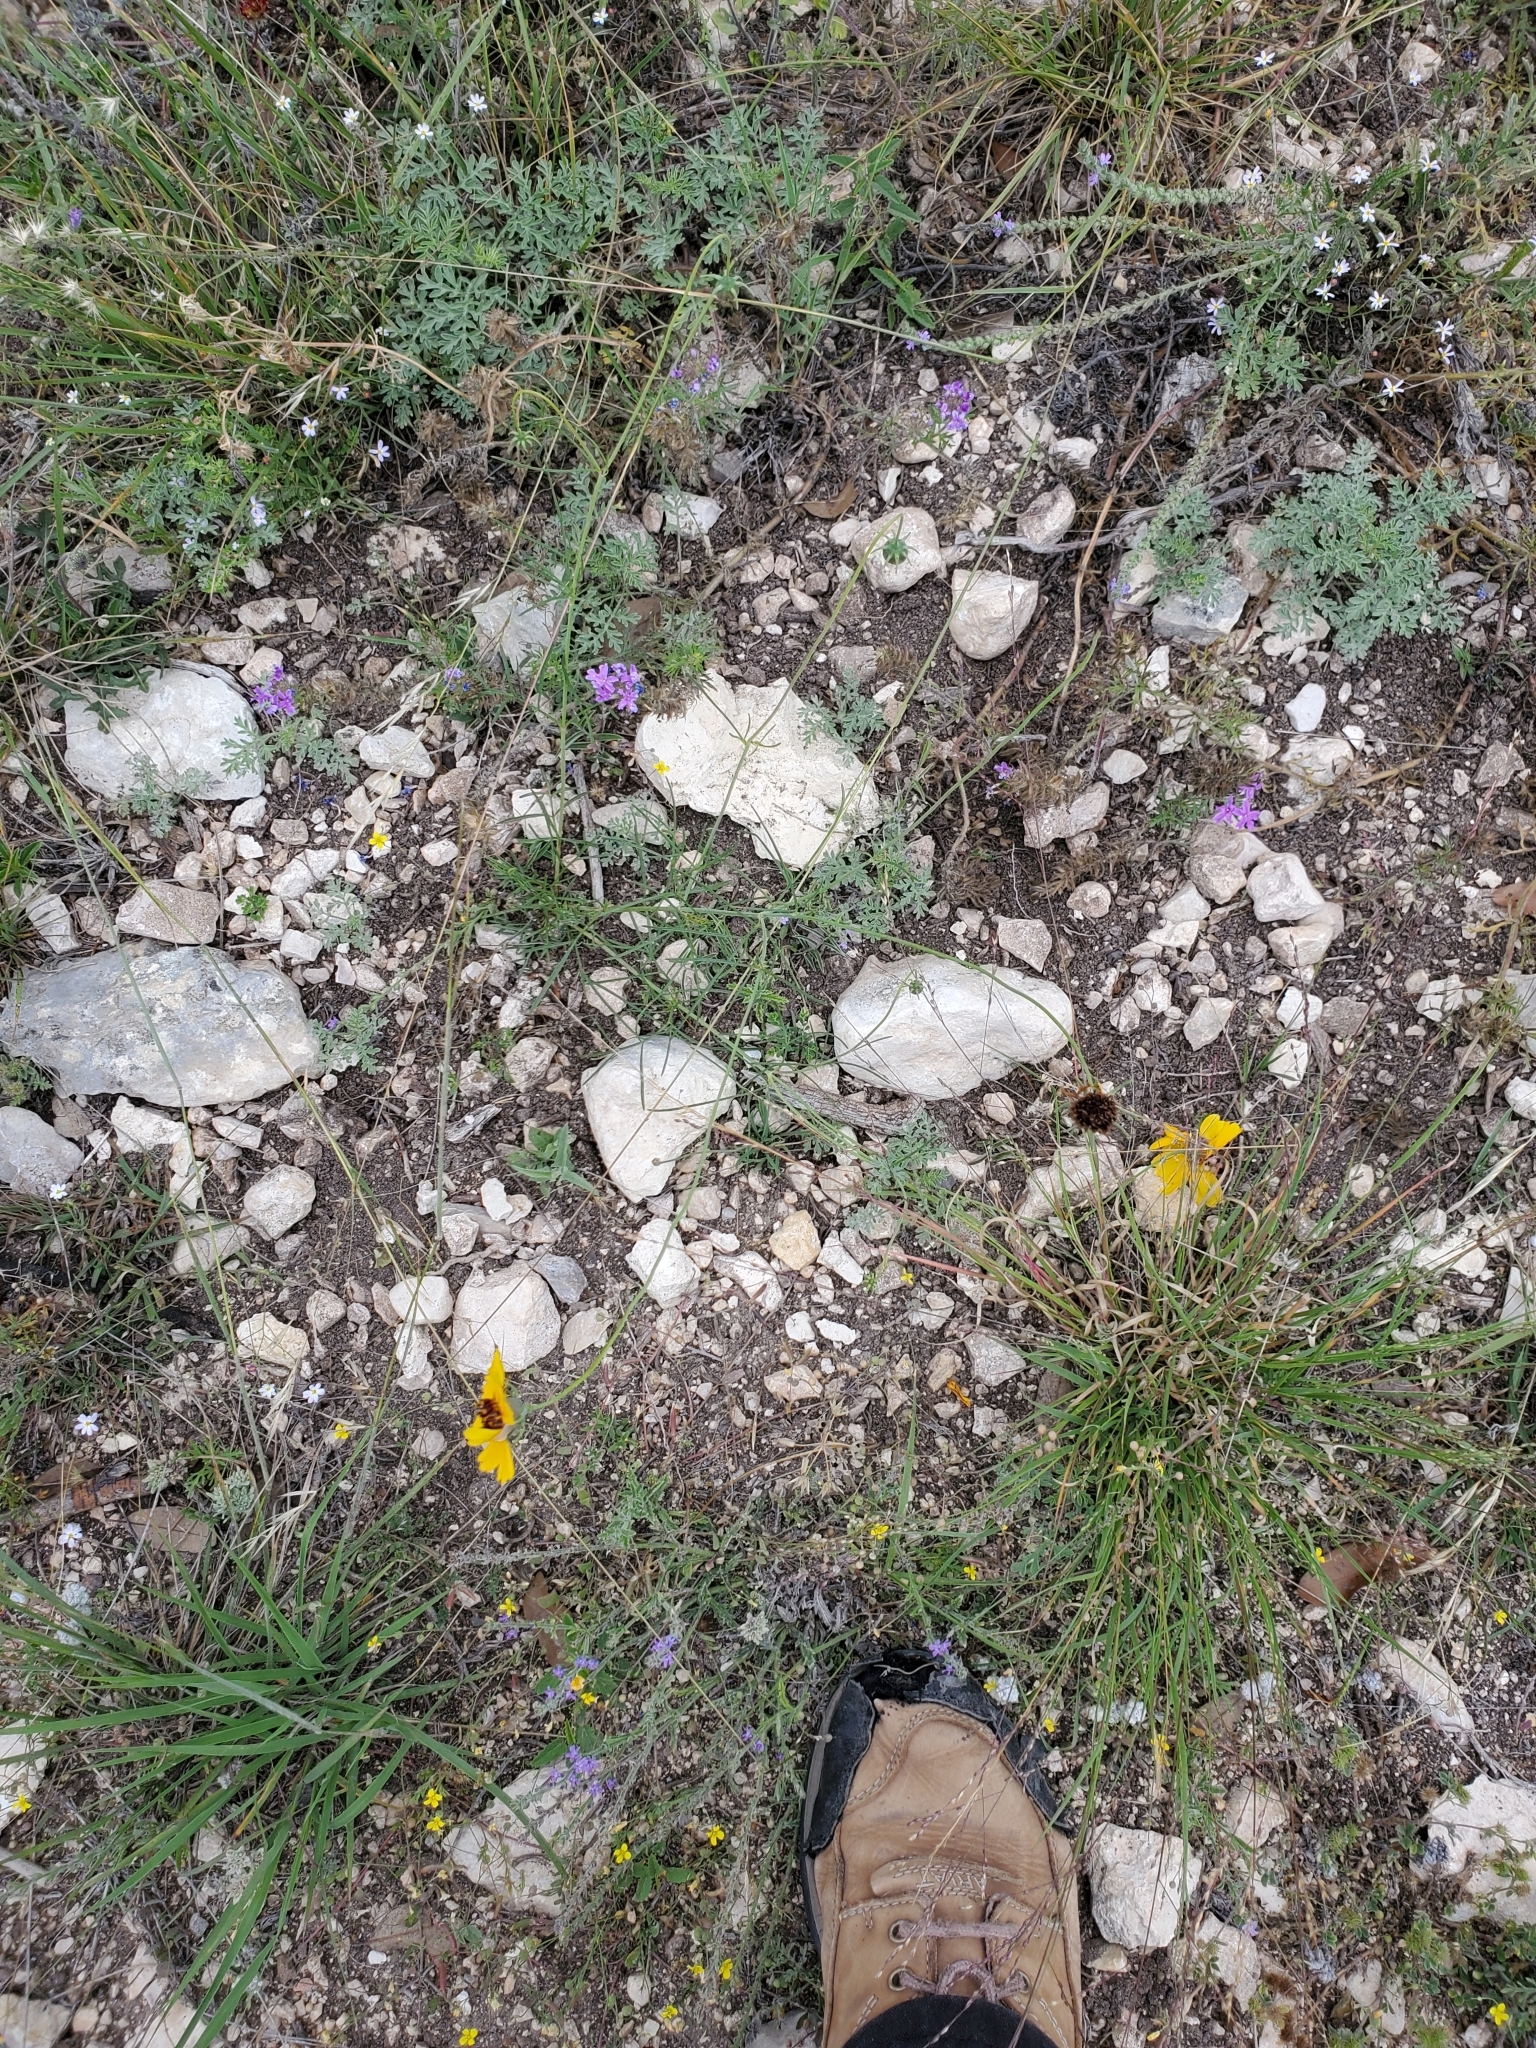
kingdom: Plantae
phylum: Tracheophyta
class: Magnoliopsida
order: Asterales
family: Asteraceae
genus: Thelesperma
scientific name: Thelesperma filifolium
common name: Stiff greenthread
